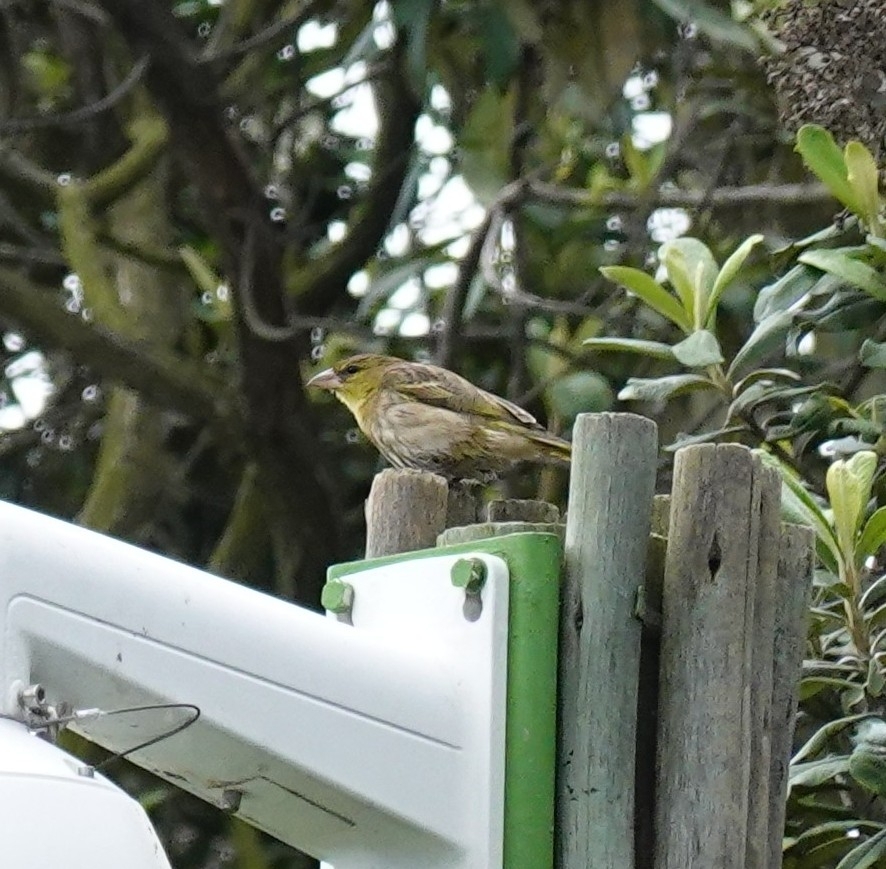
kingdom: Animalia
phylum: Chordata
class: Aves
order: Passeriformes
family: Ploceidae
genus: Ploceus
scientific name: Ploceus velatus
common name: Southern masked weaver
